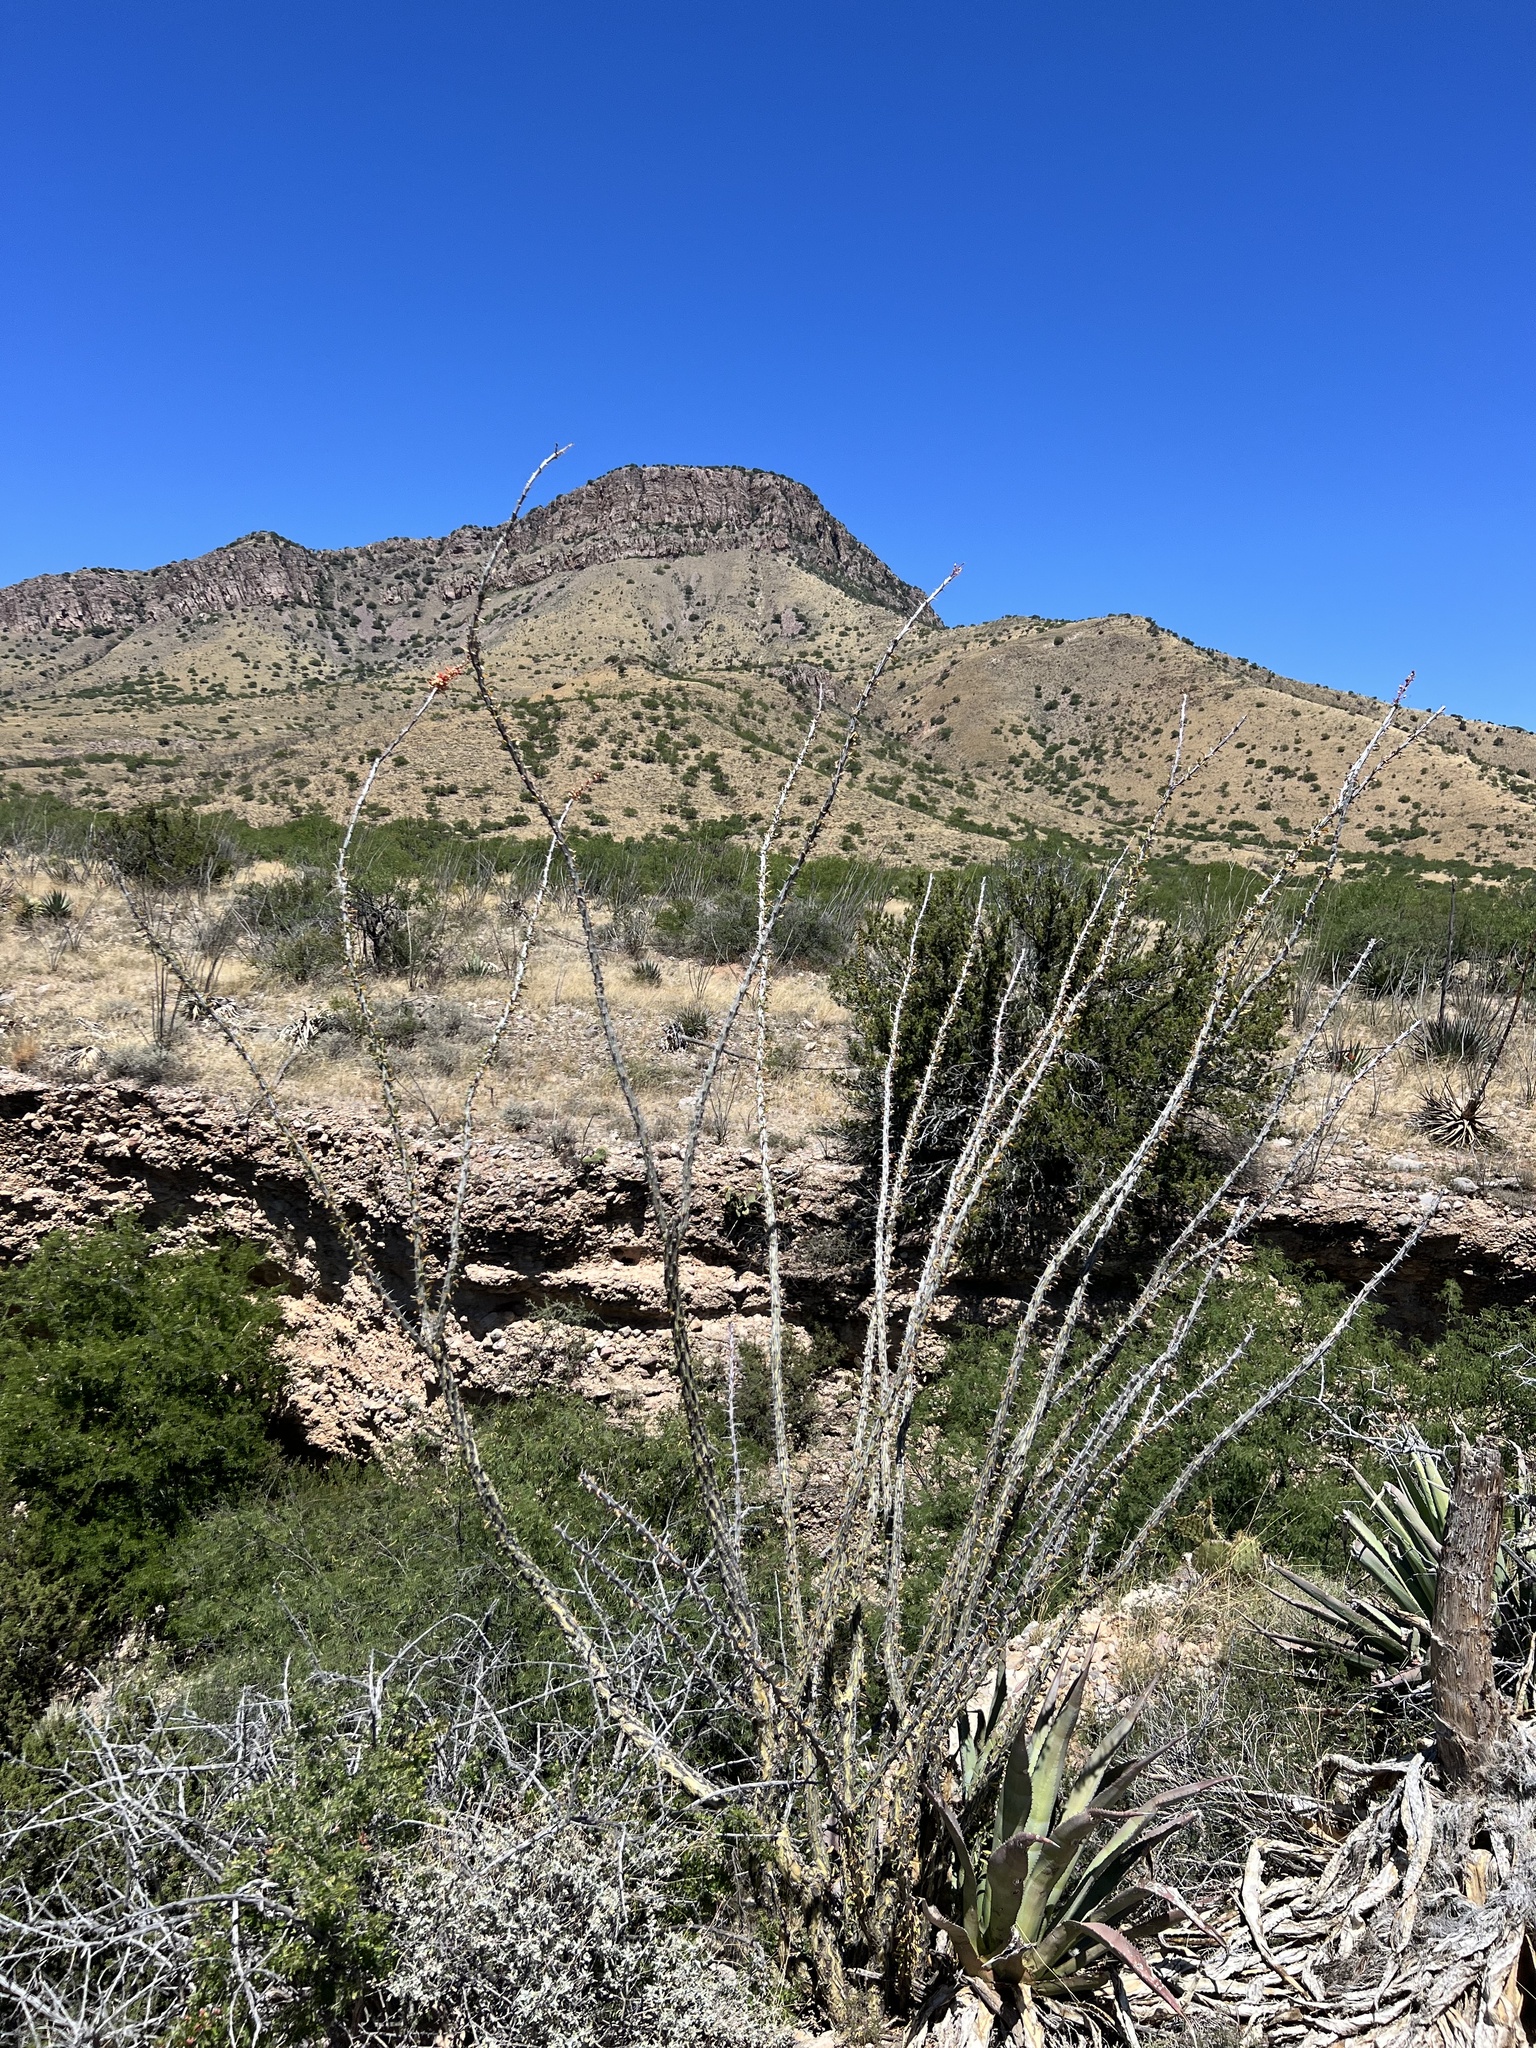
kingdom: Plantae
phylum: Tracheophyta
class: Magnoliopsida
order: Ericales
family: Fouquieriaceae
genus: Fouquieria
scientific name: Fouquieria splendens
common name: Vine-cactus
